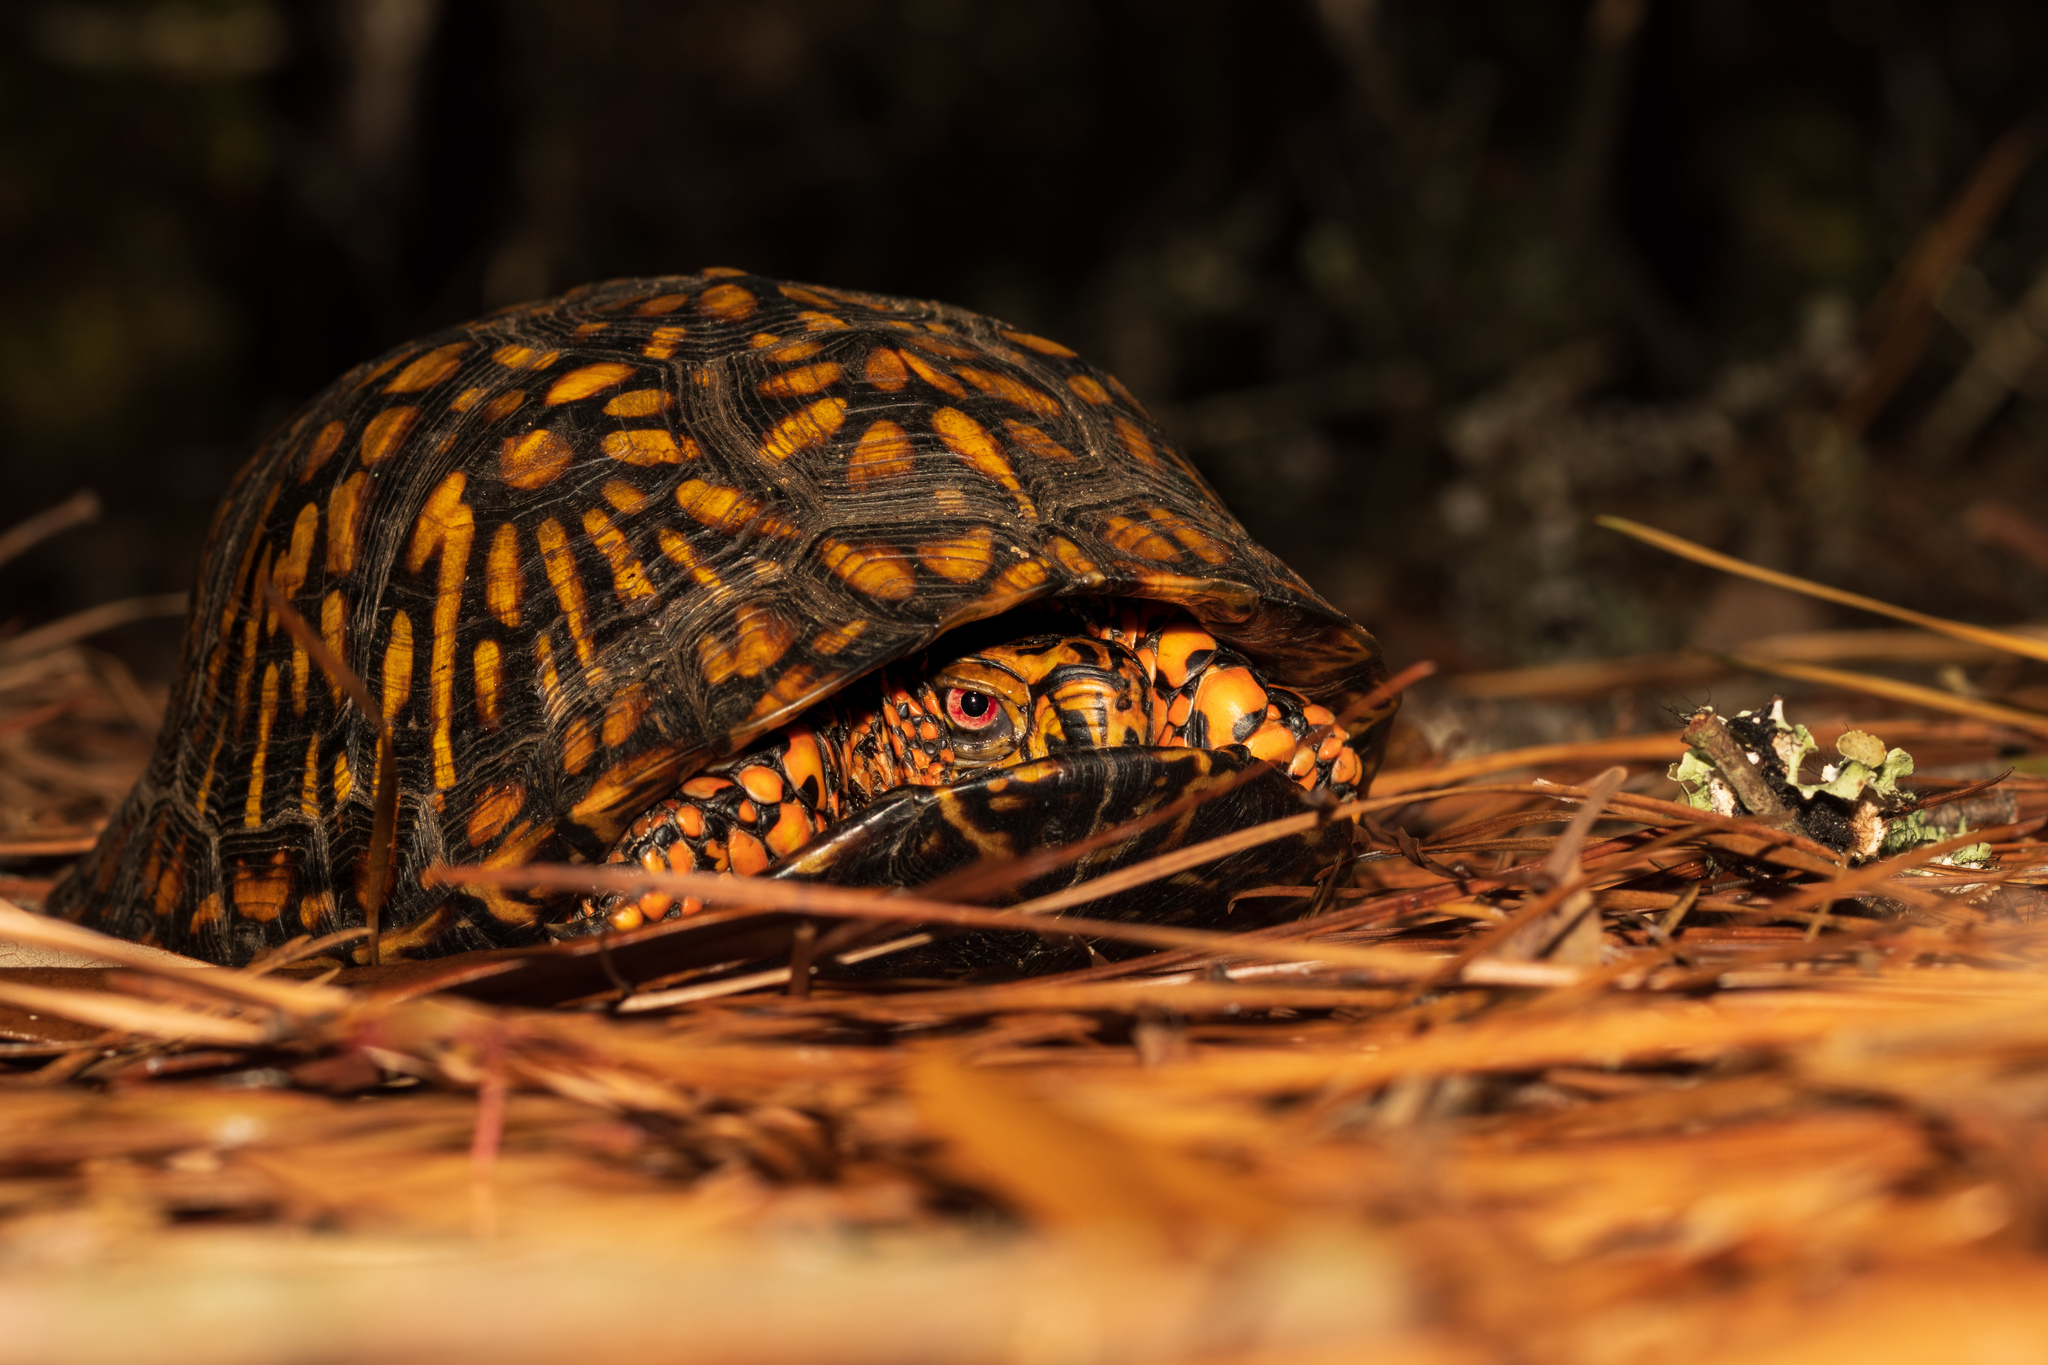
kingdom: Animalia
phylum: Chordata
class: Testudines
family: Emydidae
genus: Terrapene
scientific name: Terrapene carolina
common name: Common box turtle
